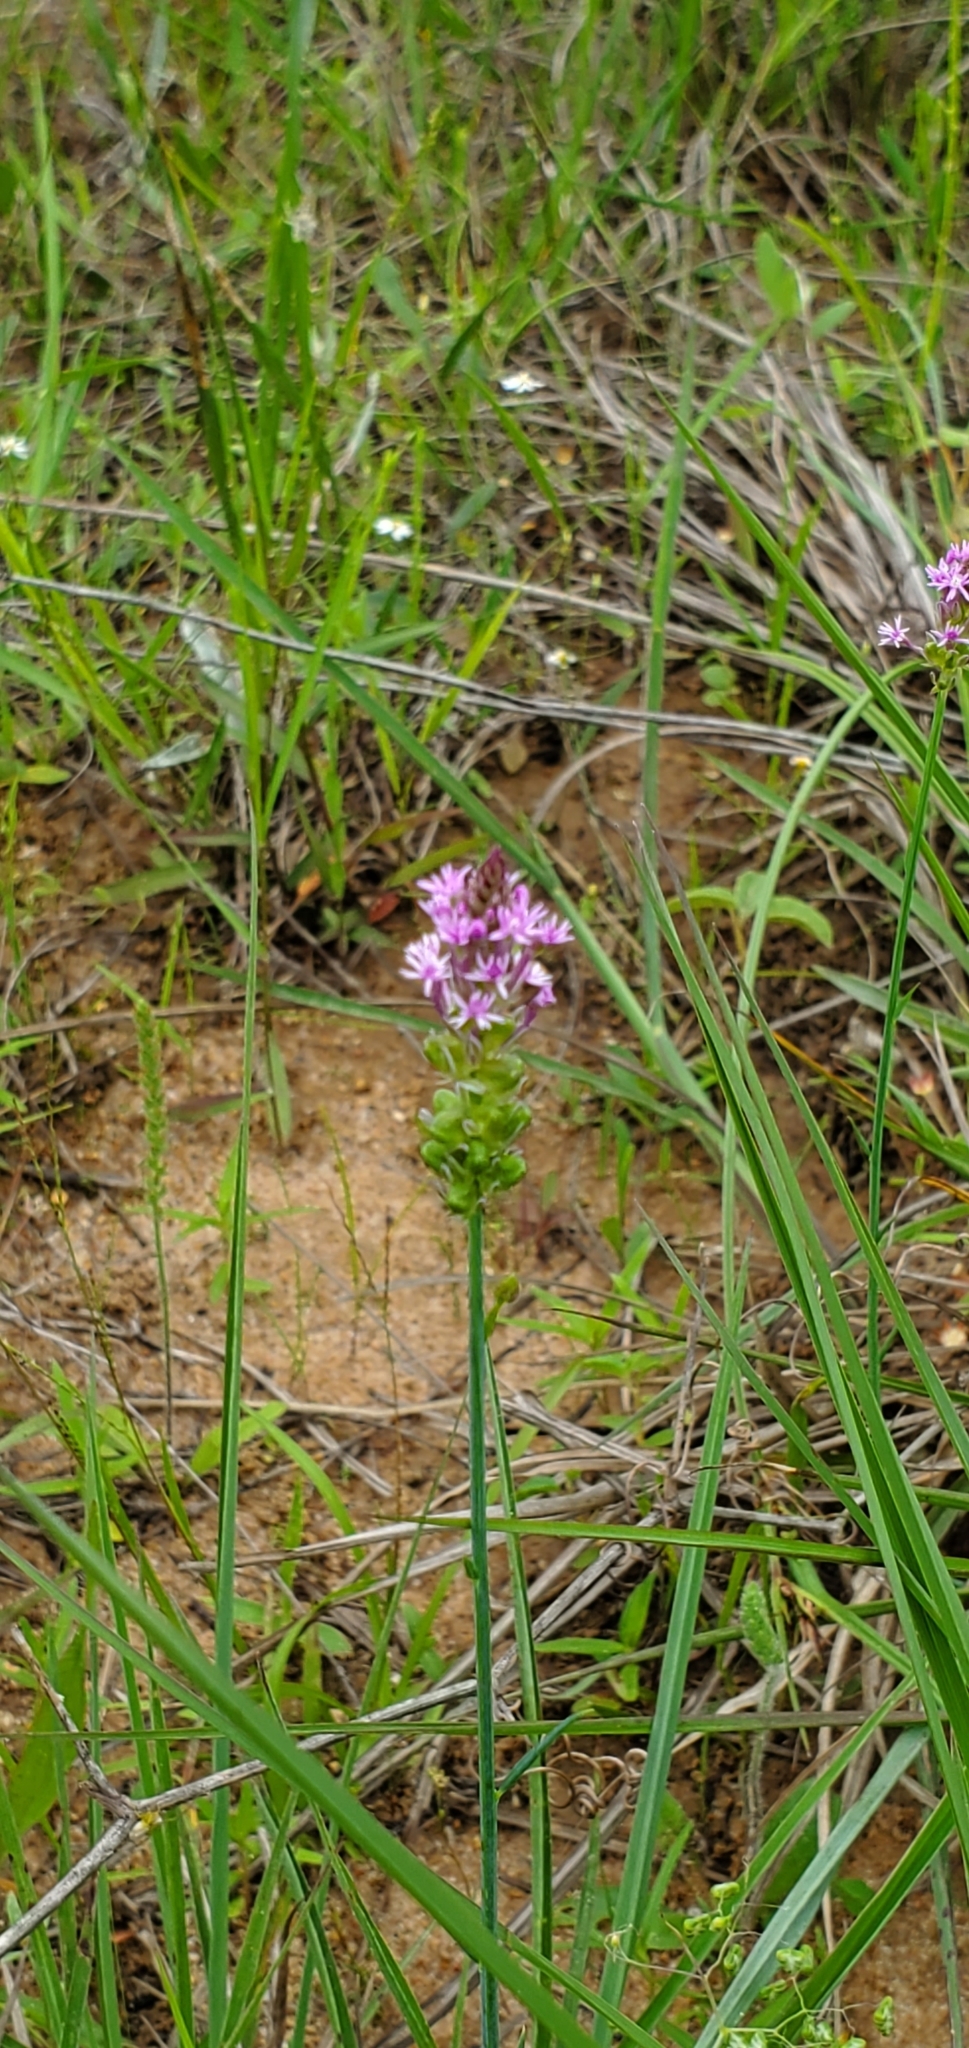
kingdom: Plantae
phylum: Tracheophyta
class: Magnoliopsida
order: Fabales
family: Polygalaceae
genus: Polygala
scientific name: Polygala incarnata
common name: Pink milkwort
